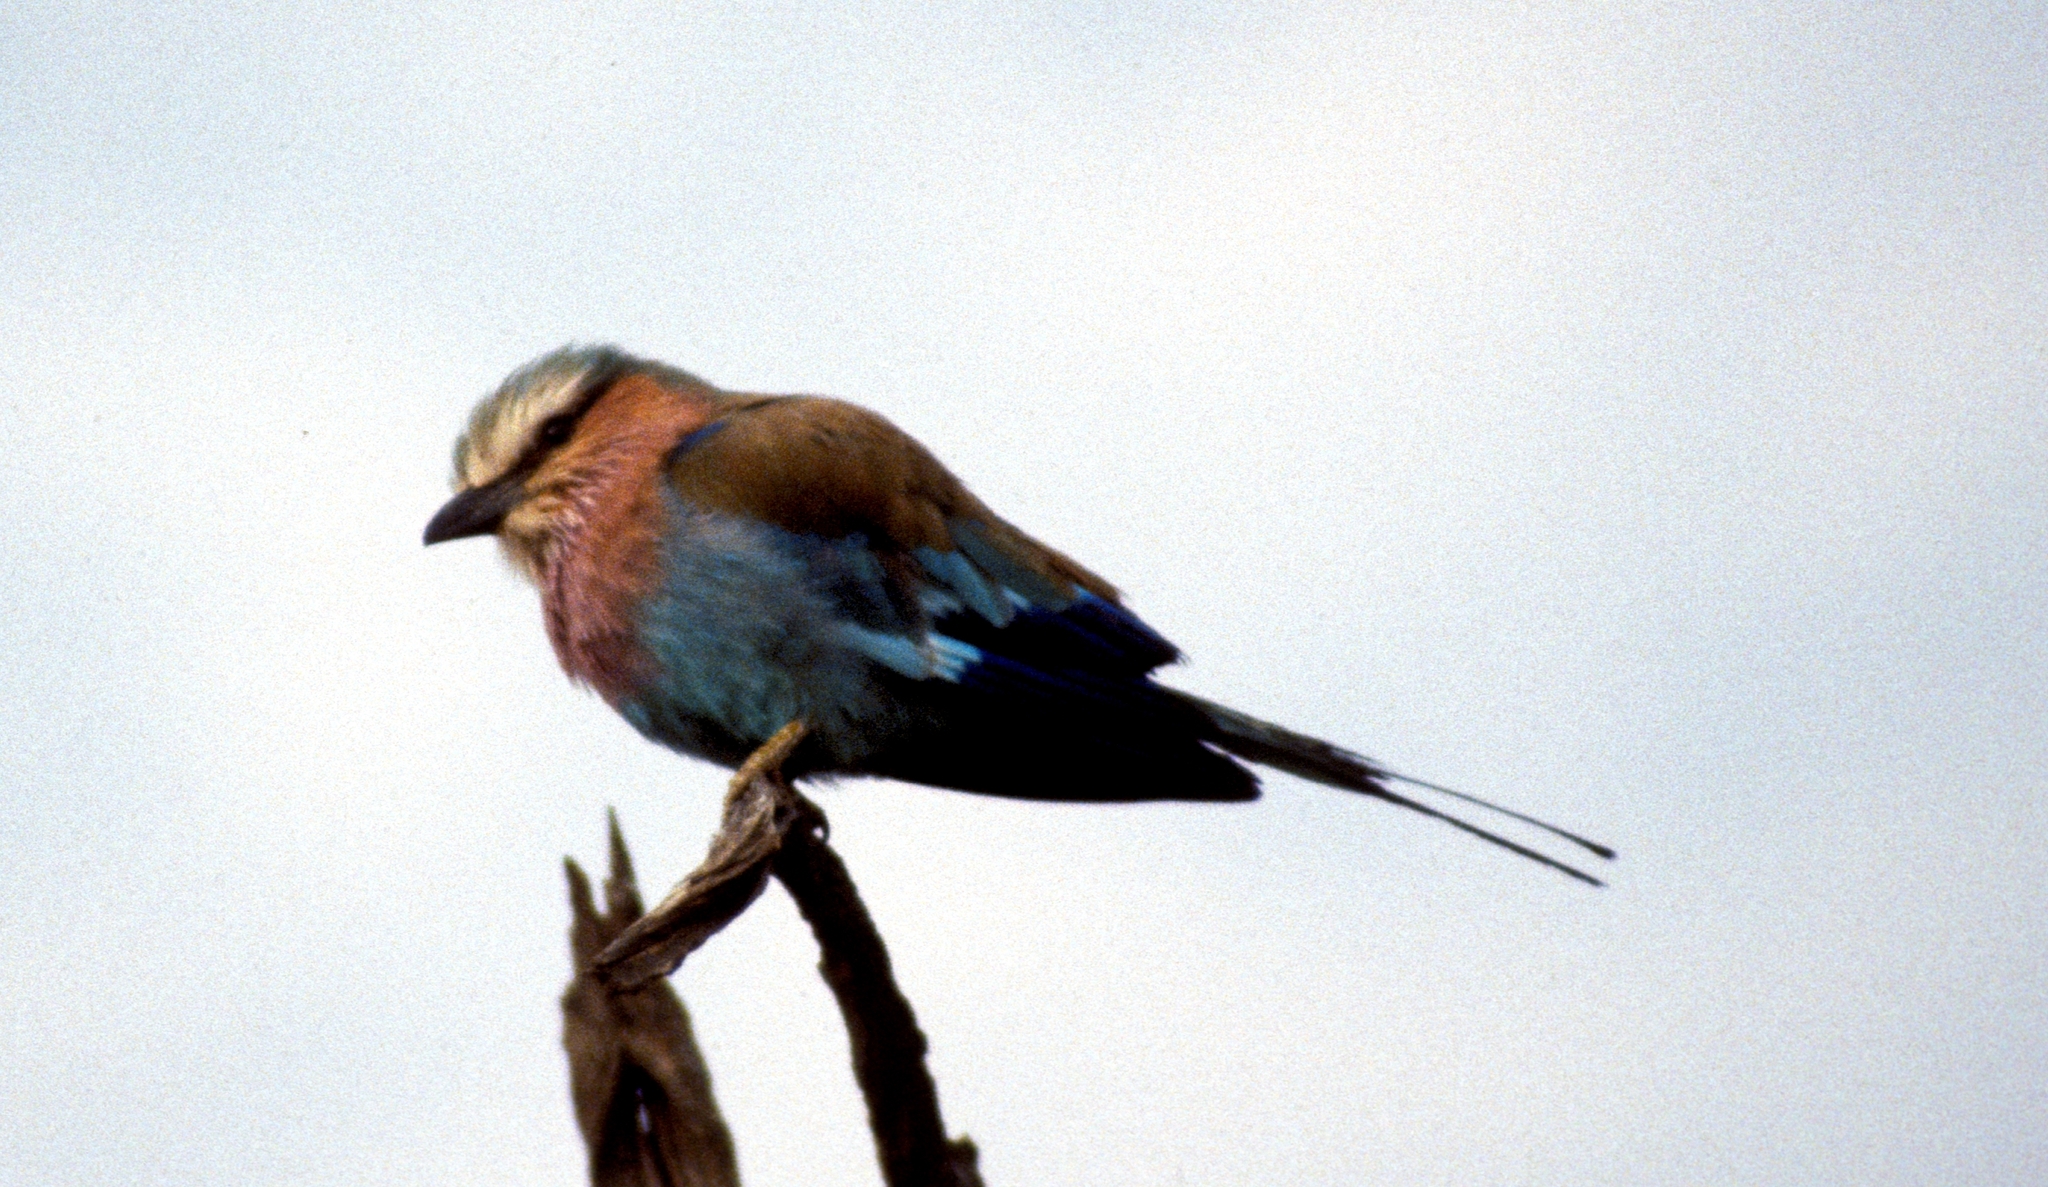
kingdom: Animalia
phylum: Chordata
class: Aves
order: Coraciiformes
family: Coraciidae
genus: Coracias
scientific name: Coracias caudatus
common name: Lilac-breasted roller
